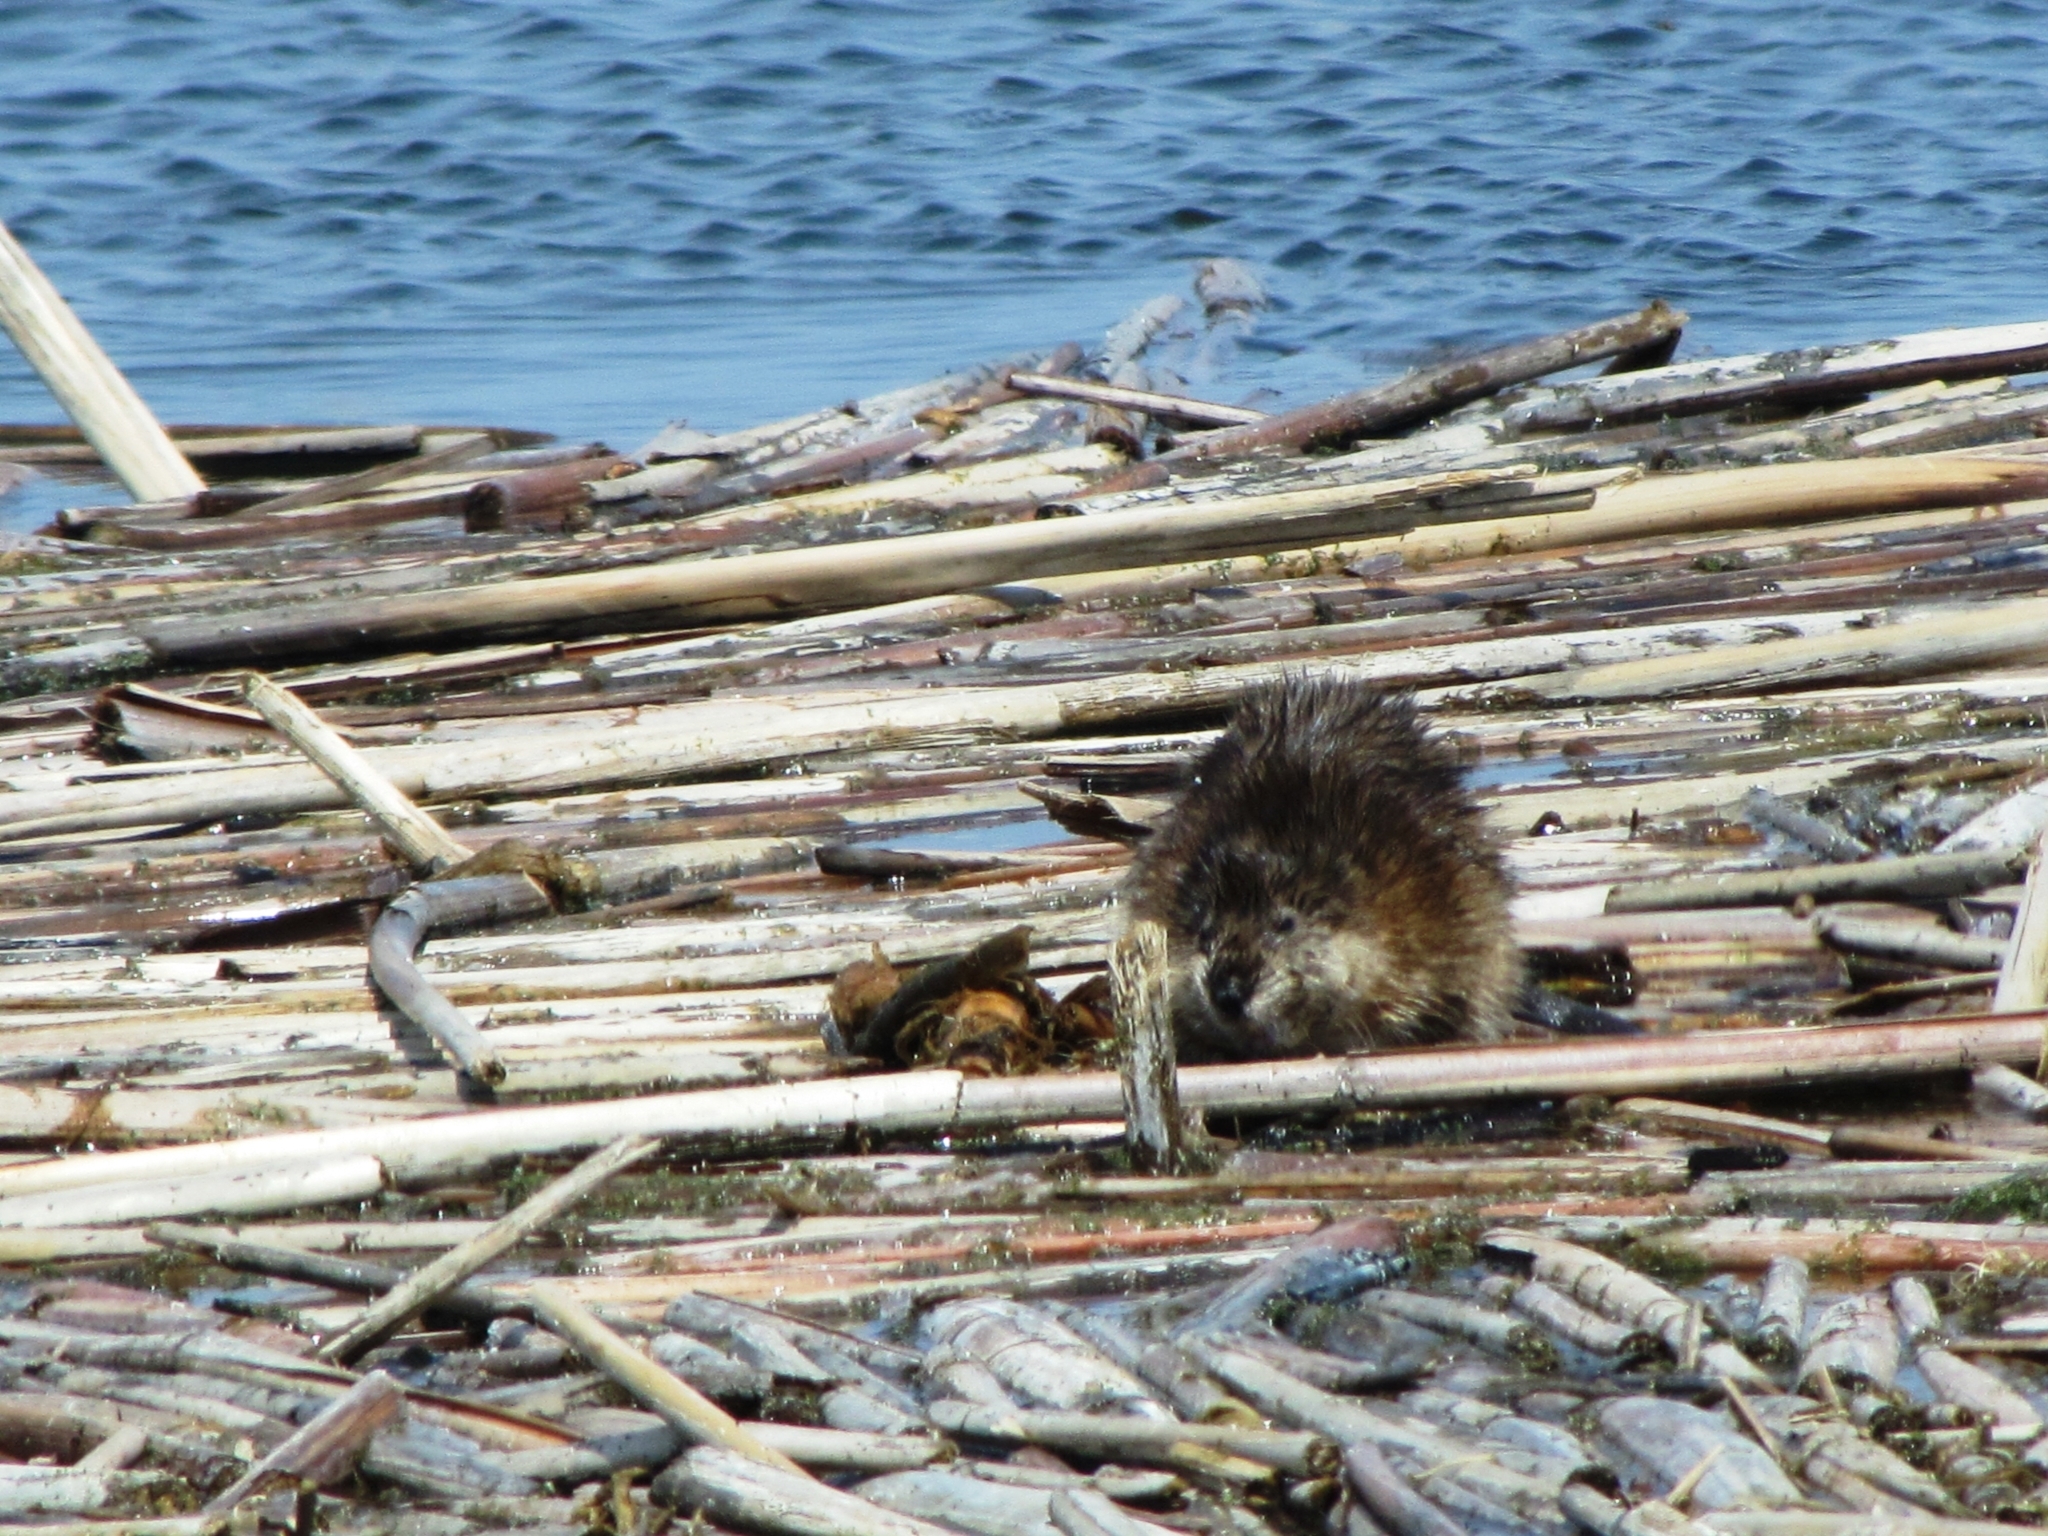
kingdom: Animalia
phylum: Chordata
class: Mammalia
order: Rodentia
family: Cricetidae
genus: Ondatra
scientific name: Ondatra zibethicus
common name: Muskrat
